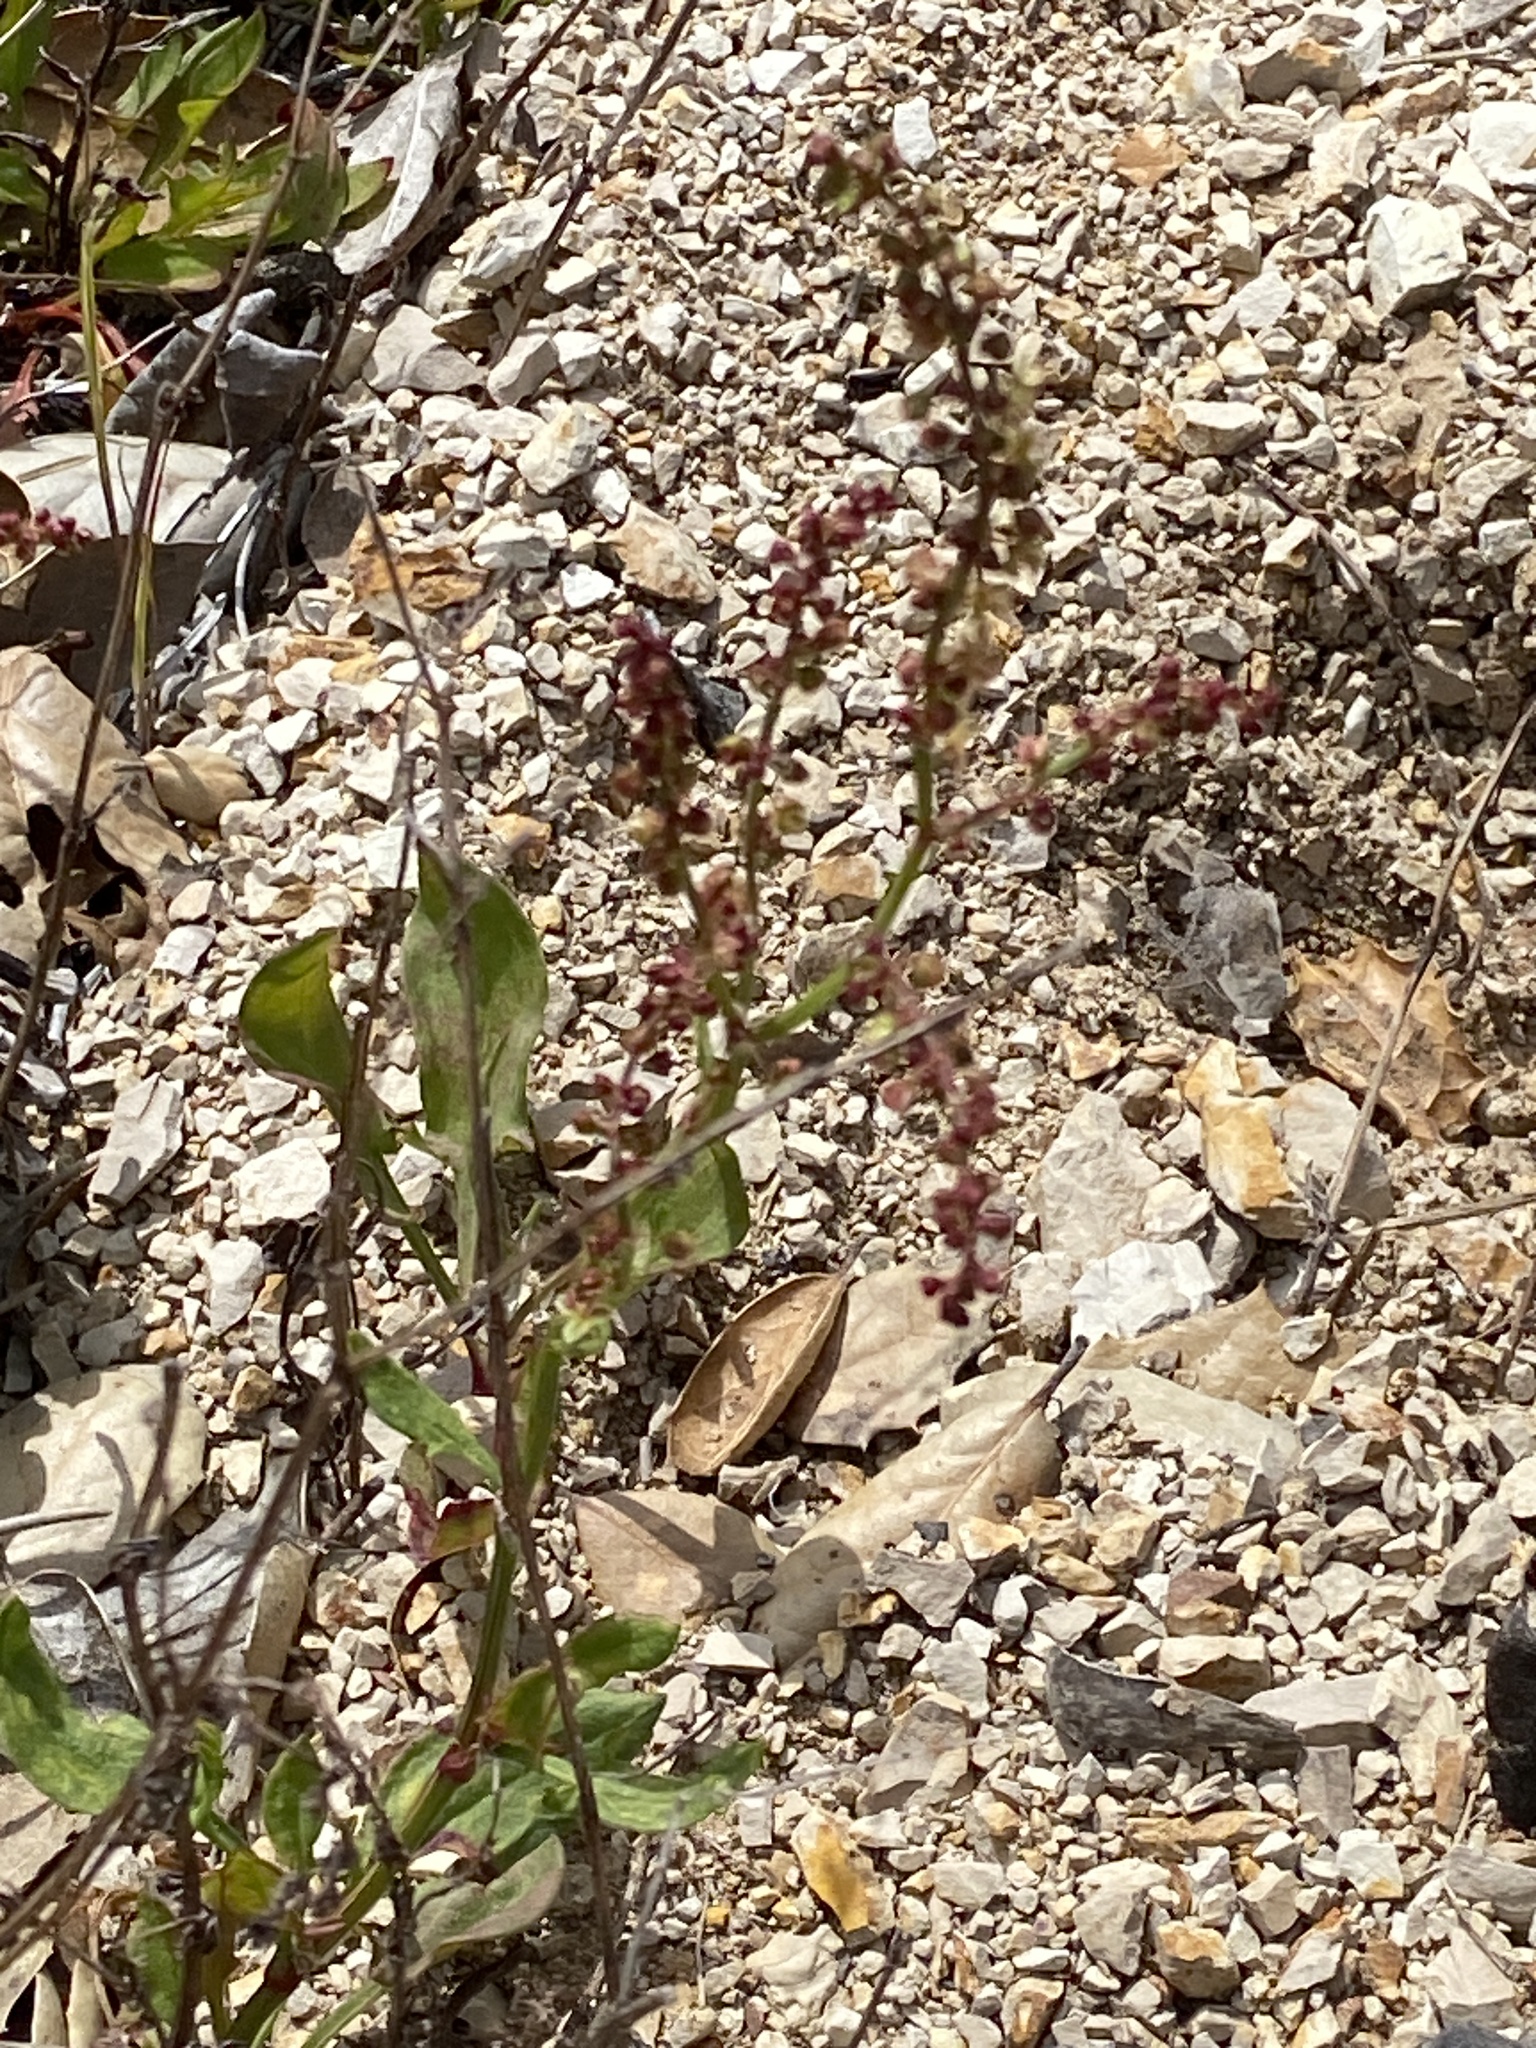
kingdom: Plantae
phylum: Tracheophyta
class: Magnoliopsida
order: Caryophyllales
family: Polygonaceae
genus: Rumex
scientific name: Rumex acetosella
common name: Common sheep sorrel
